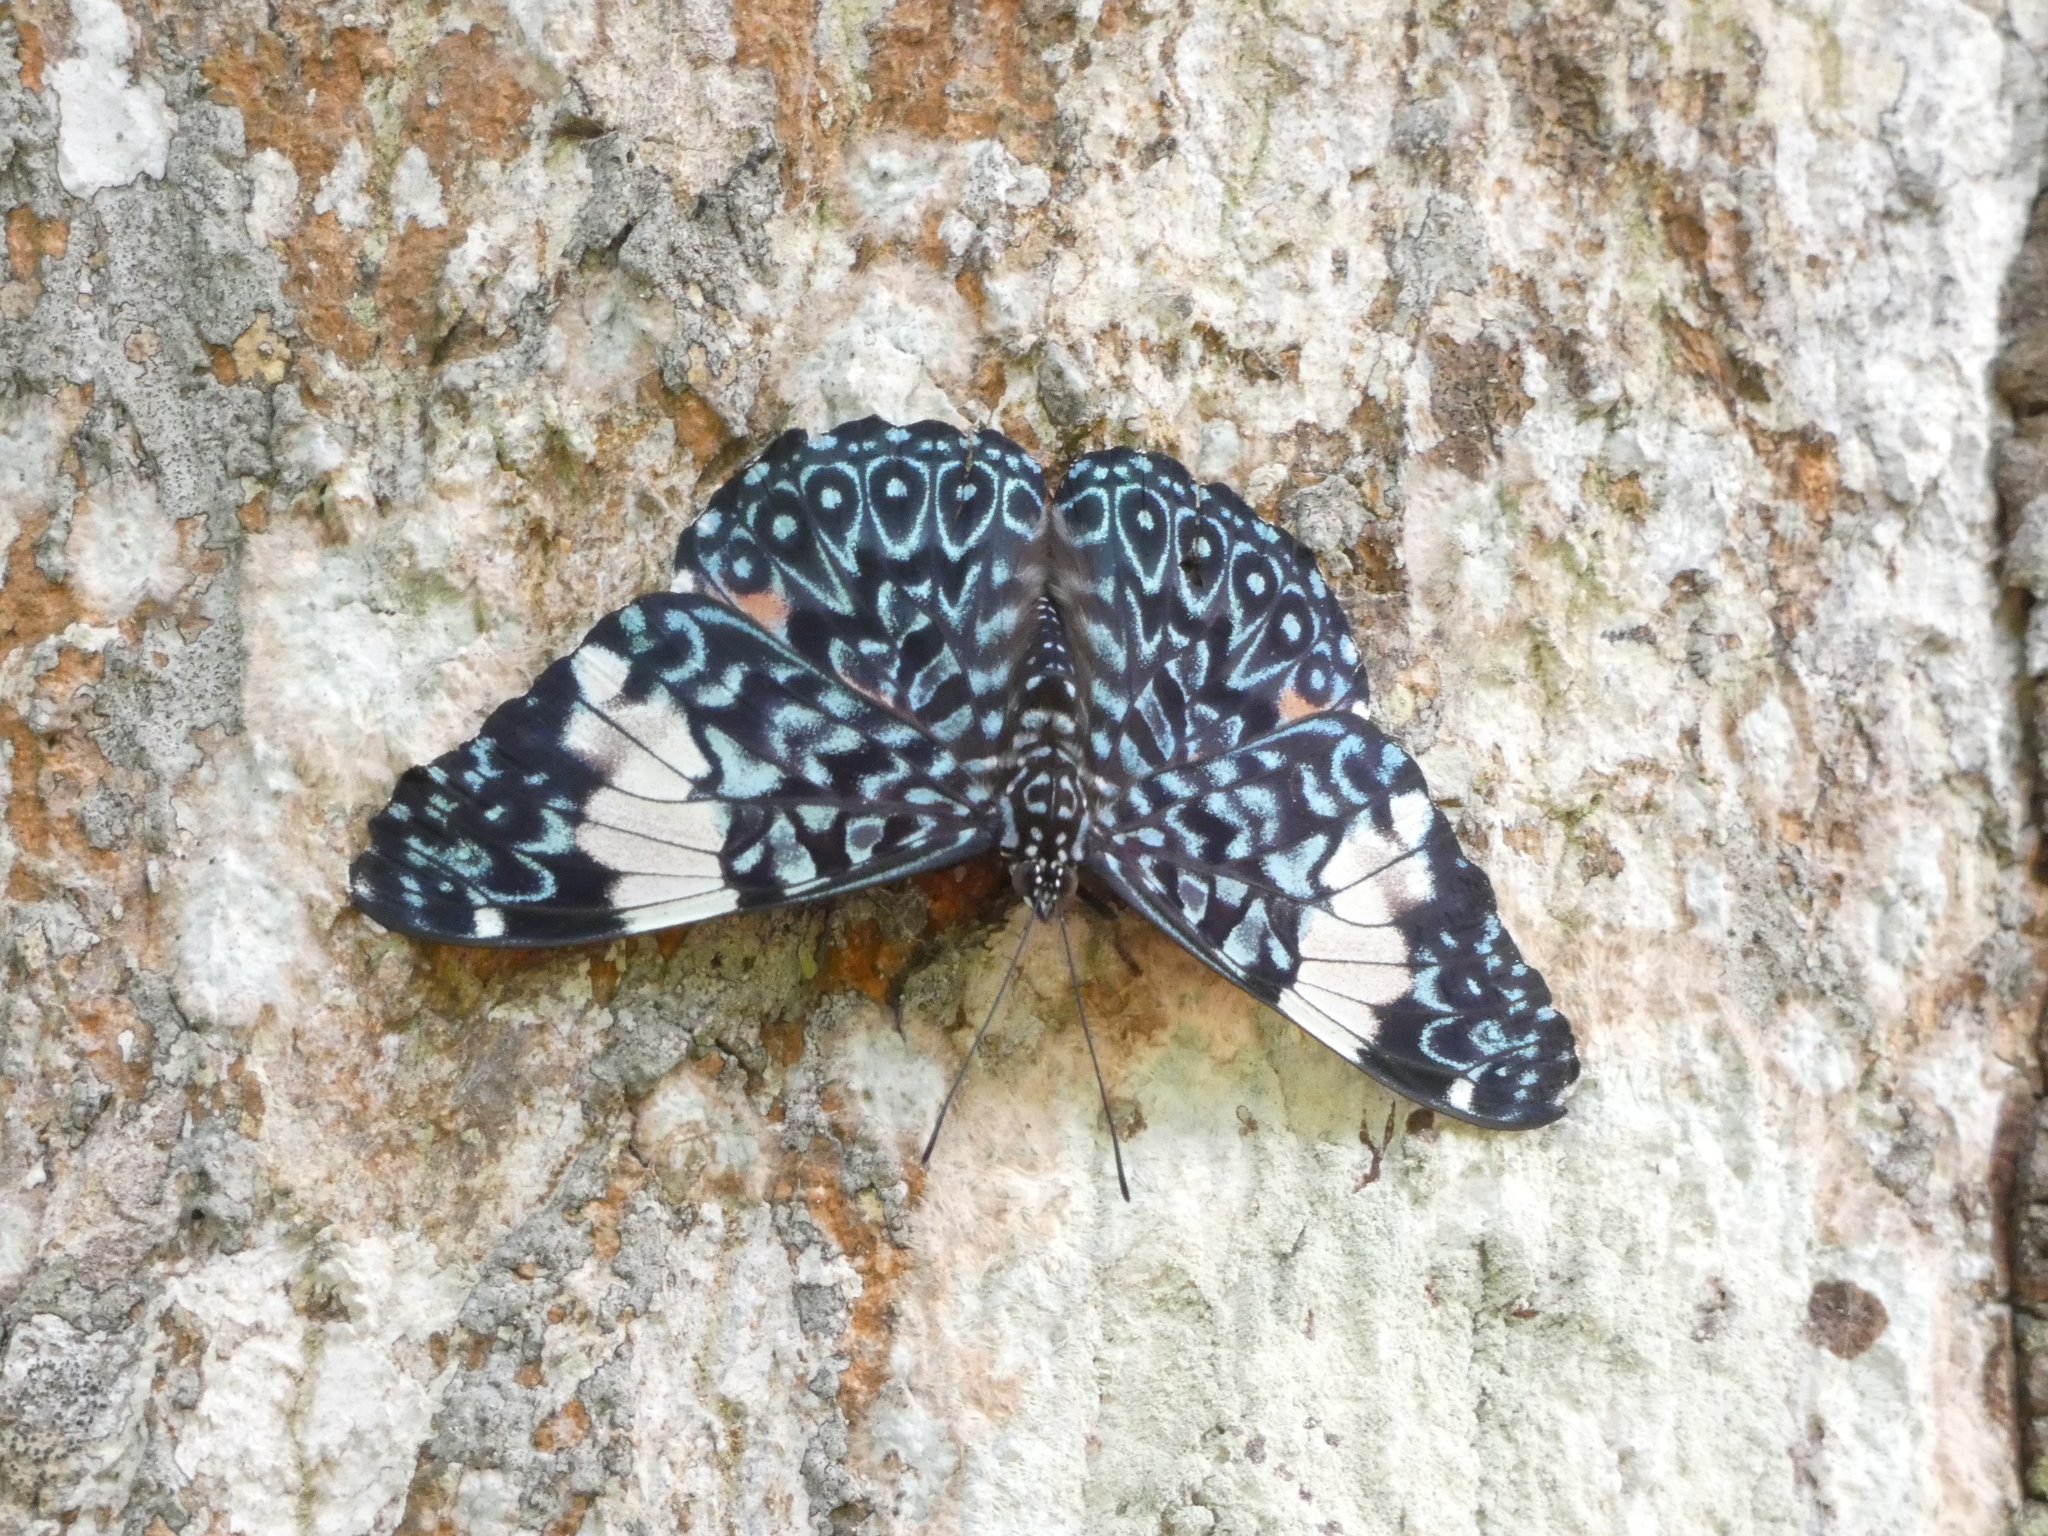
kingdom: Animalia
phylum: Arthropoda
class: Insecta
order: Lepidoptera
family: Nymphalidae
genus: Hamadryas
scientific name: Hamadryas amphinome
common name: Red cracker
